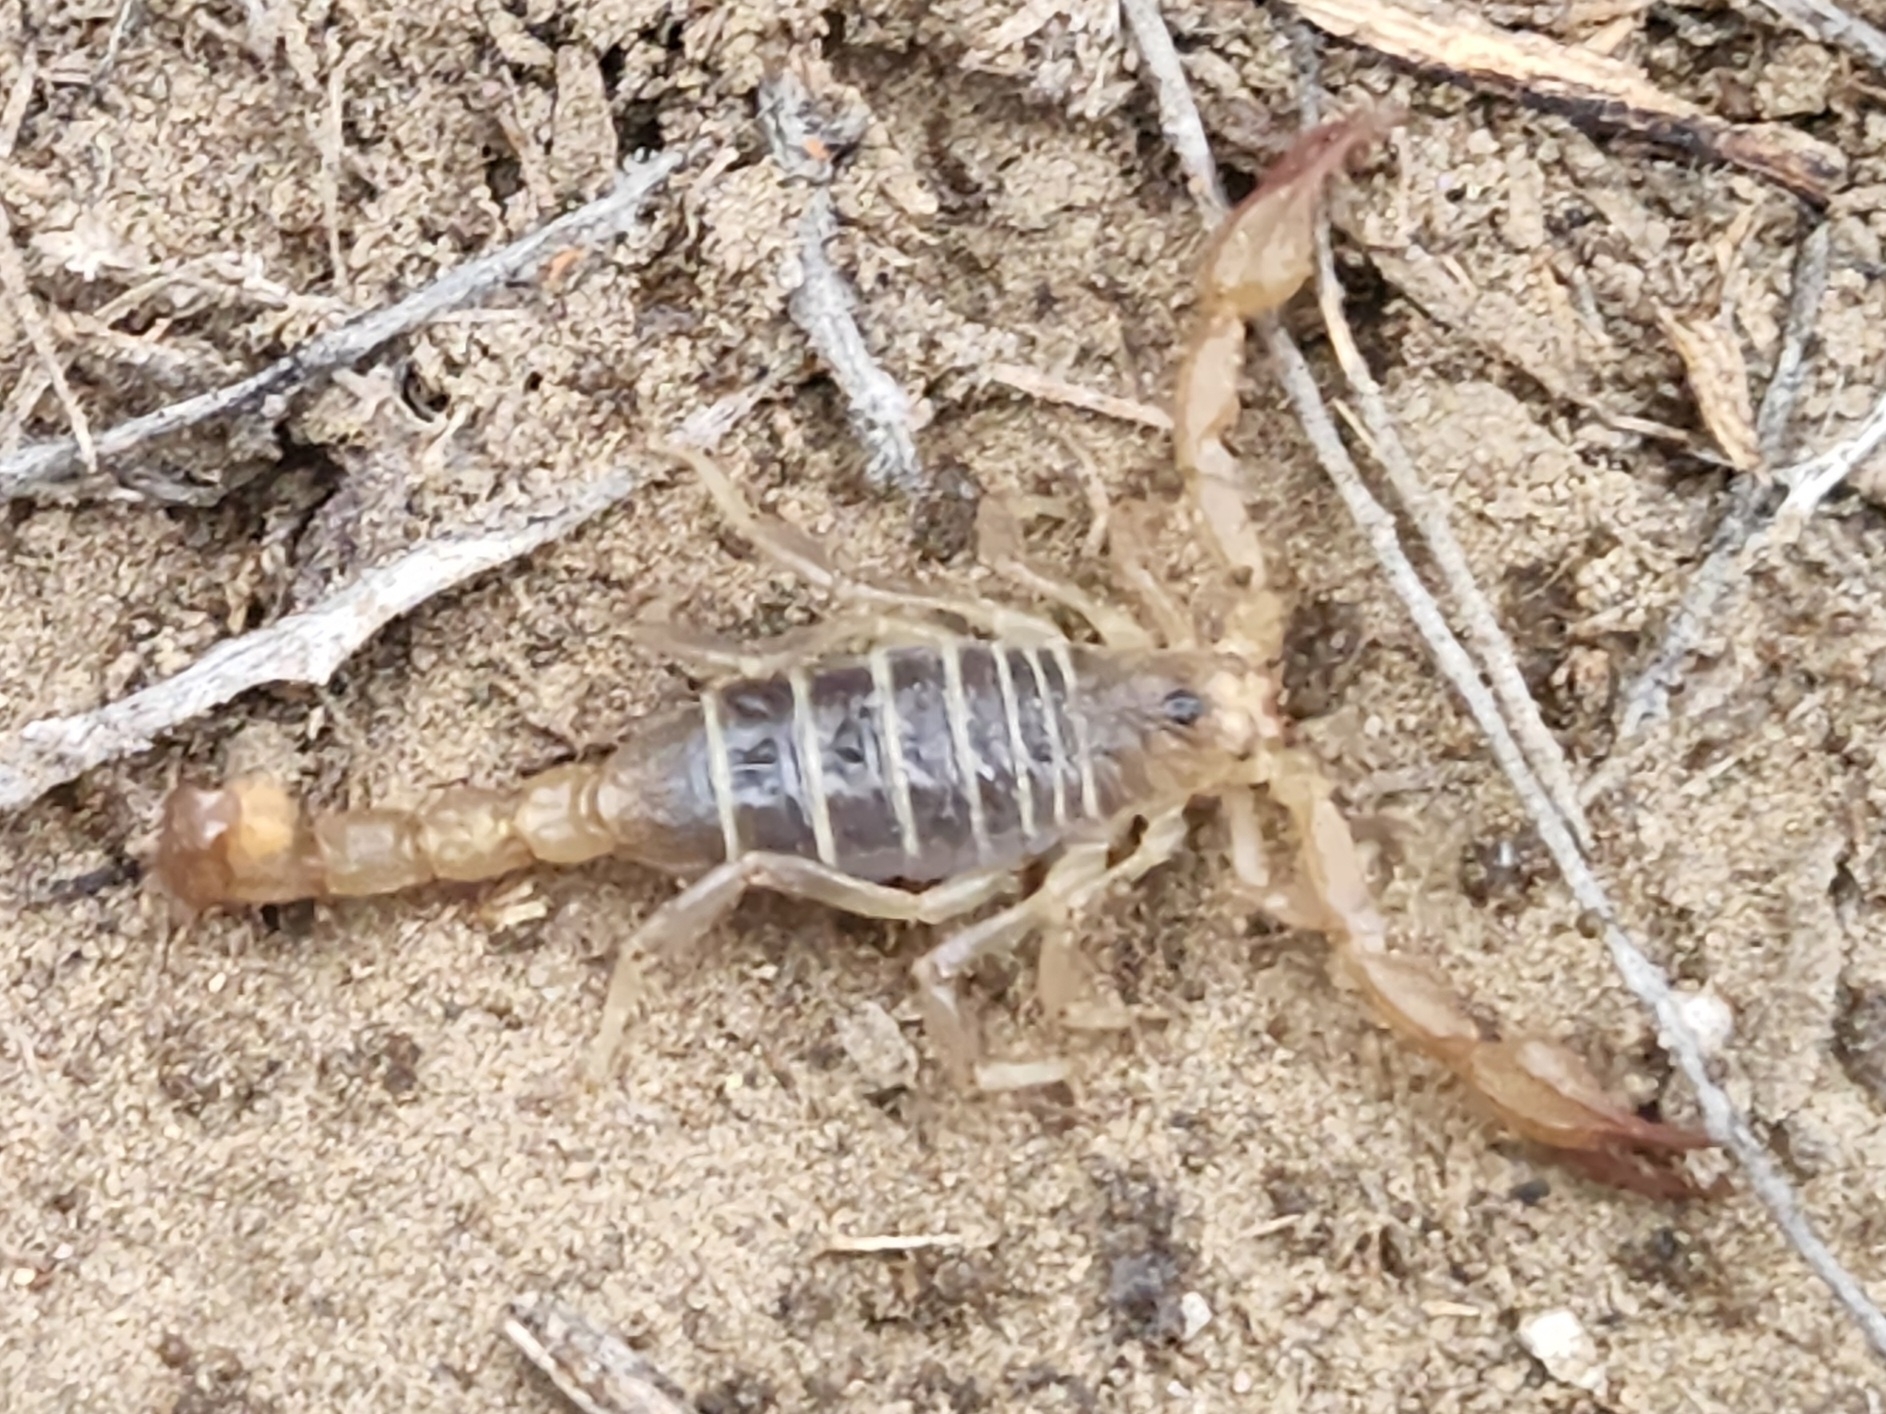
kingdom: Animalia
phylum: Arthropoda
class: Arachnida
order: Scorpiones
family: Vaejovidae
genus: Paruroctonus
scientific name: Paruroctonus boreus
